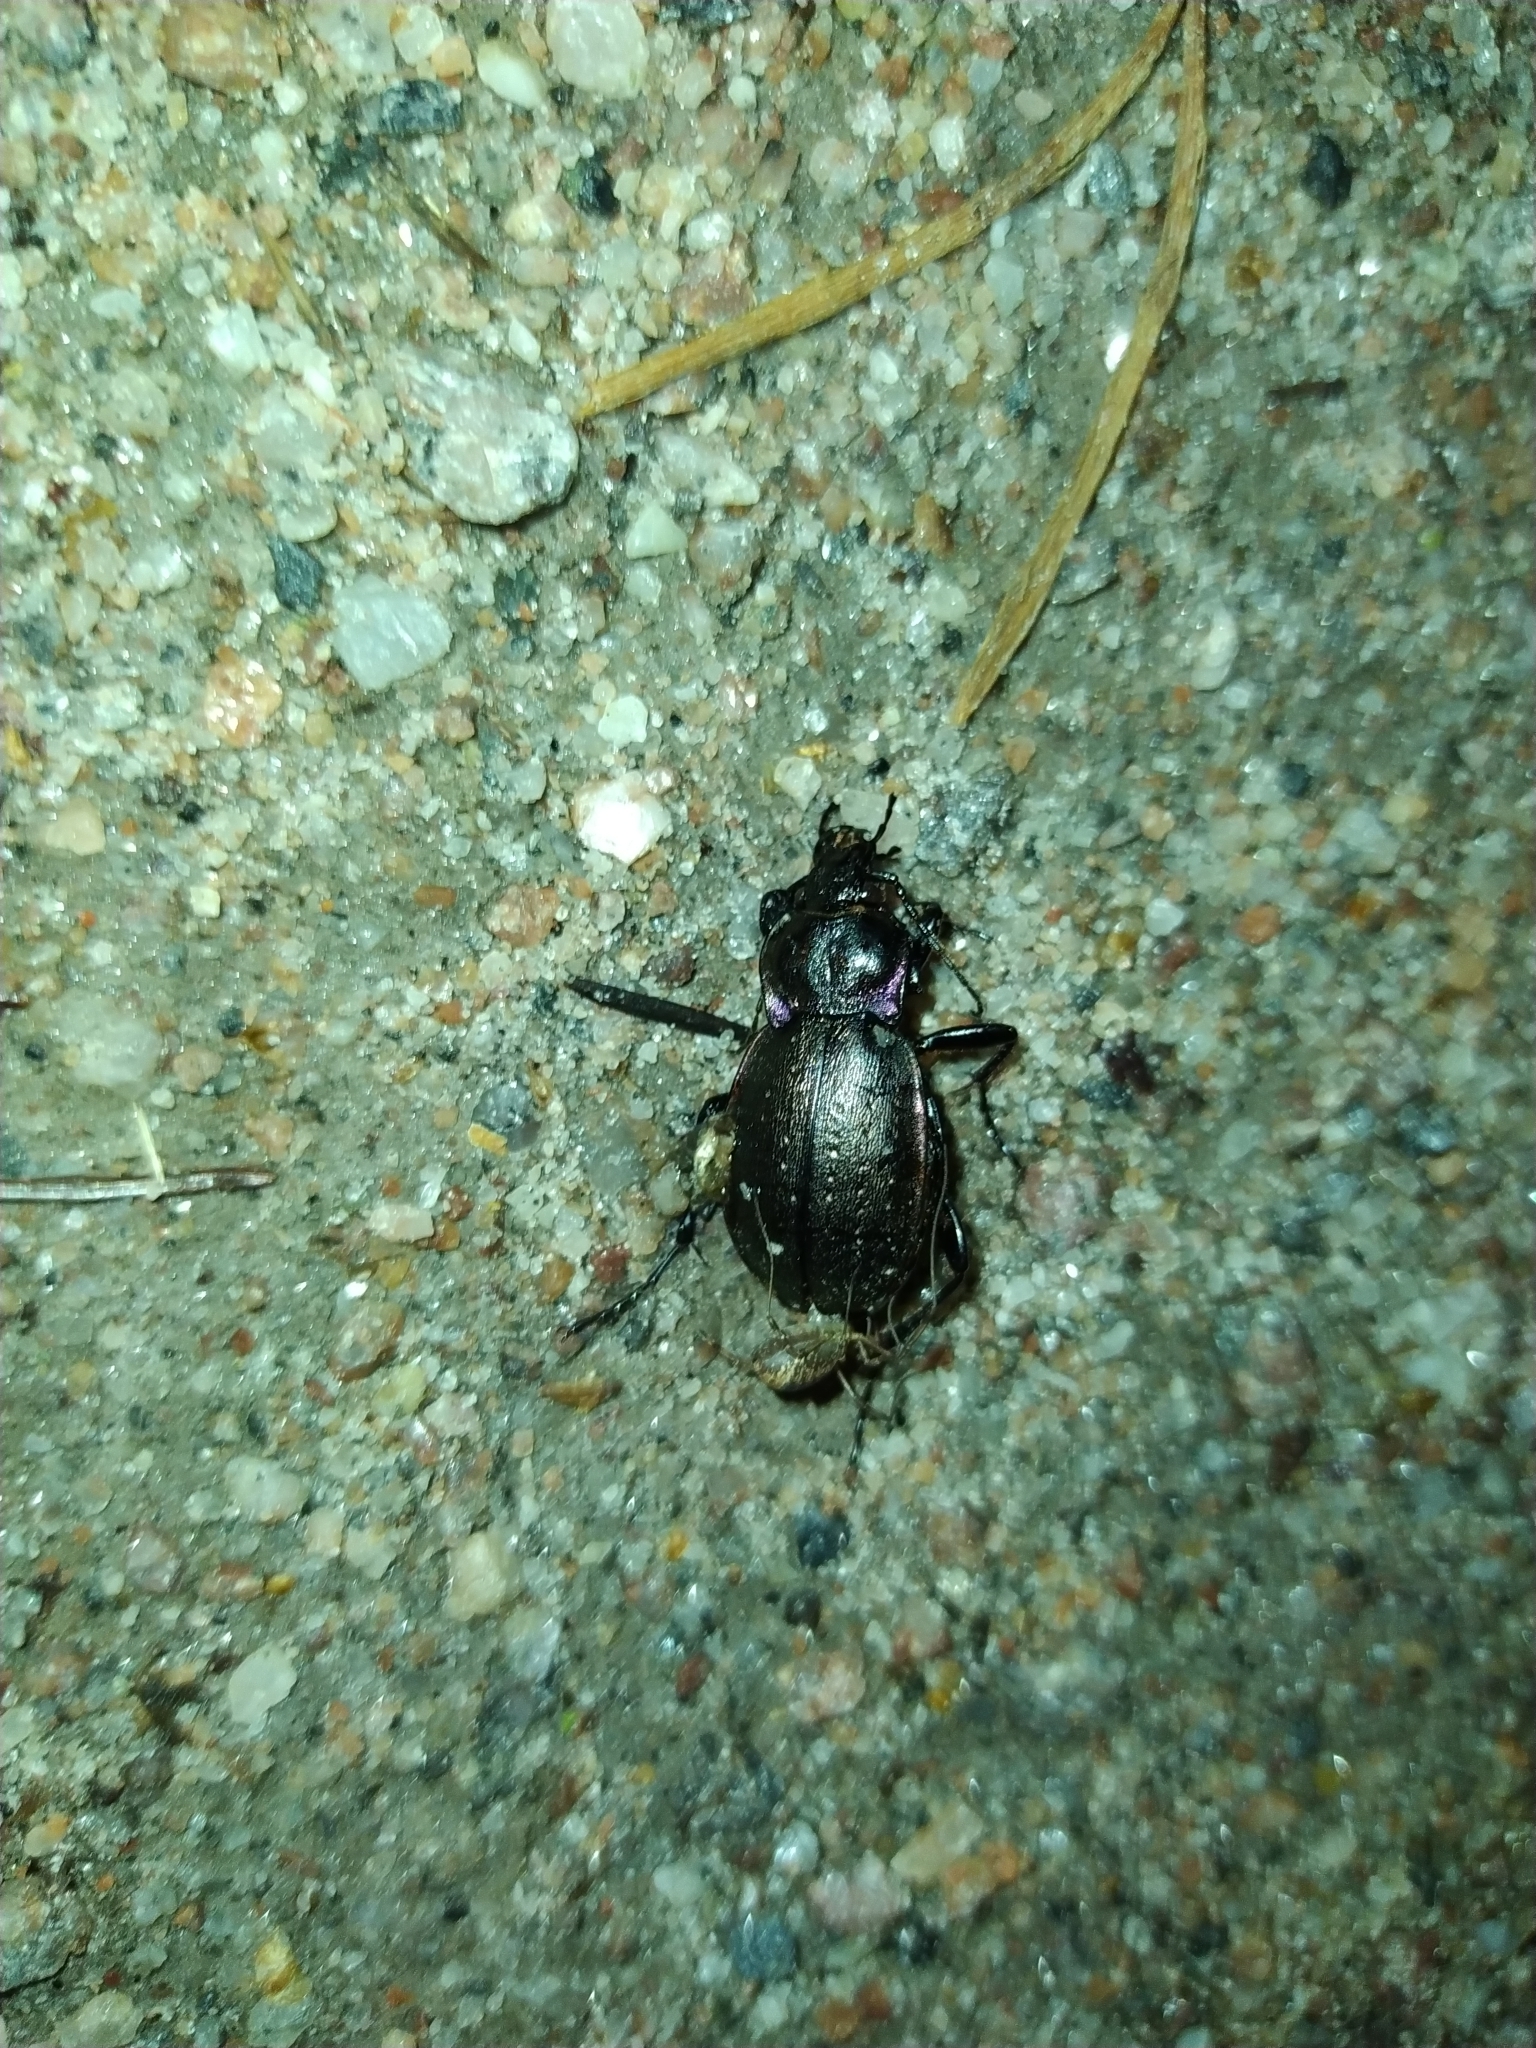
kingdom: Animalia
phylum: Arthropoda
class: Insecta
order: Coleoptera
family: Carabidae
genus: Carabus
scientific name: Carabus nemoralis
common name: European ground beetle
